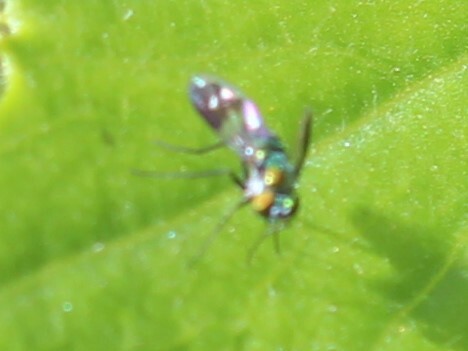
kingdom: Animalia
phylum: Arthropoda
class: Insecta
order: Diptera
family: Dolichopodidae
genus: Condylostylus
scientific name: Condylostylus patibulatus
